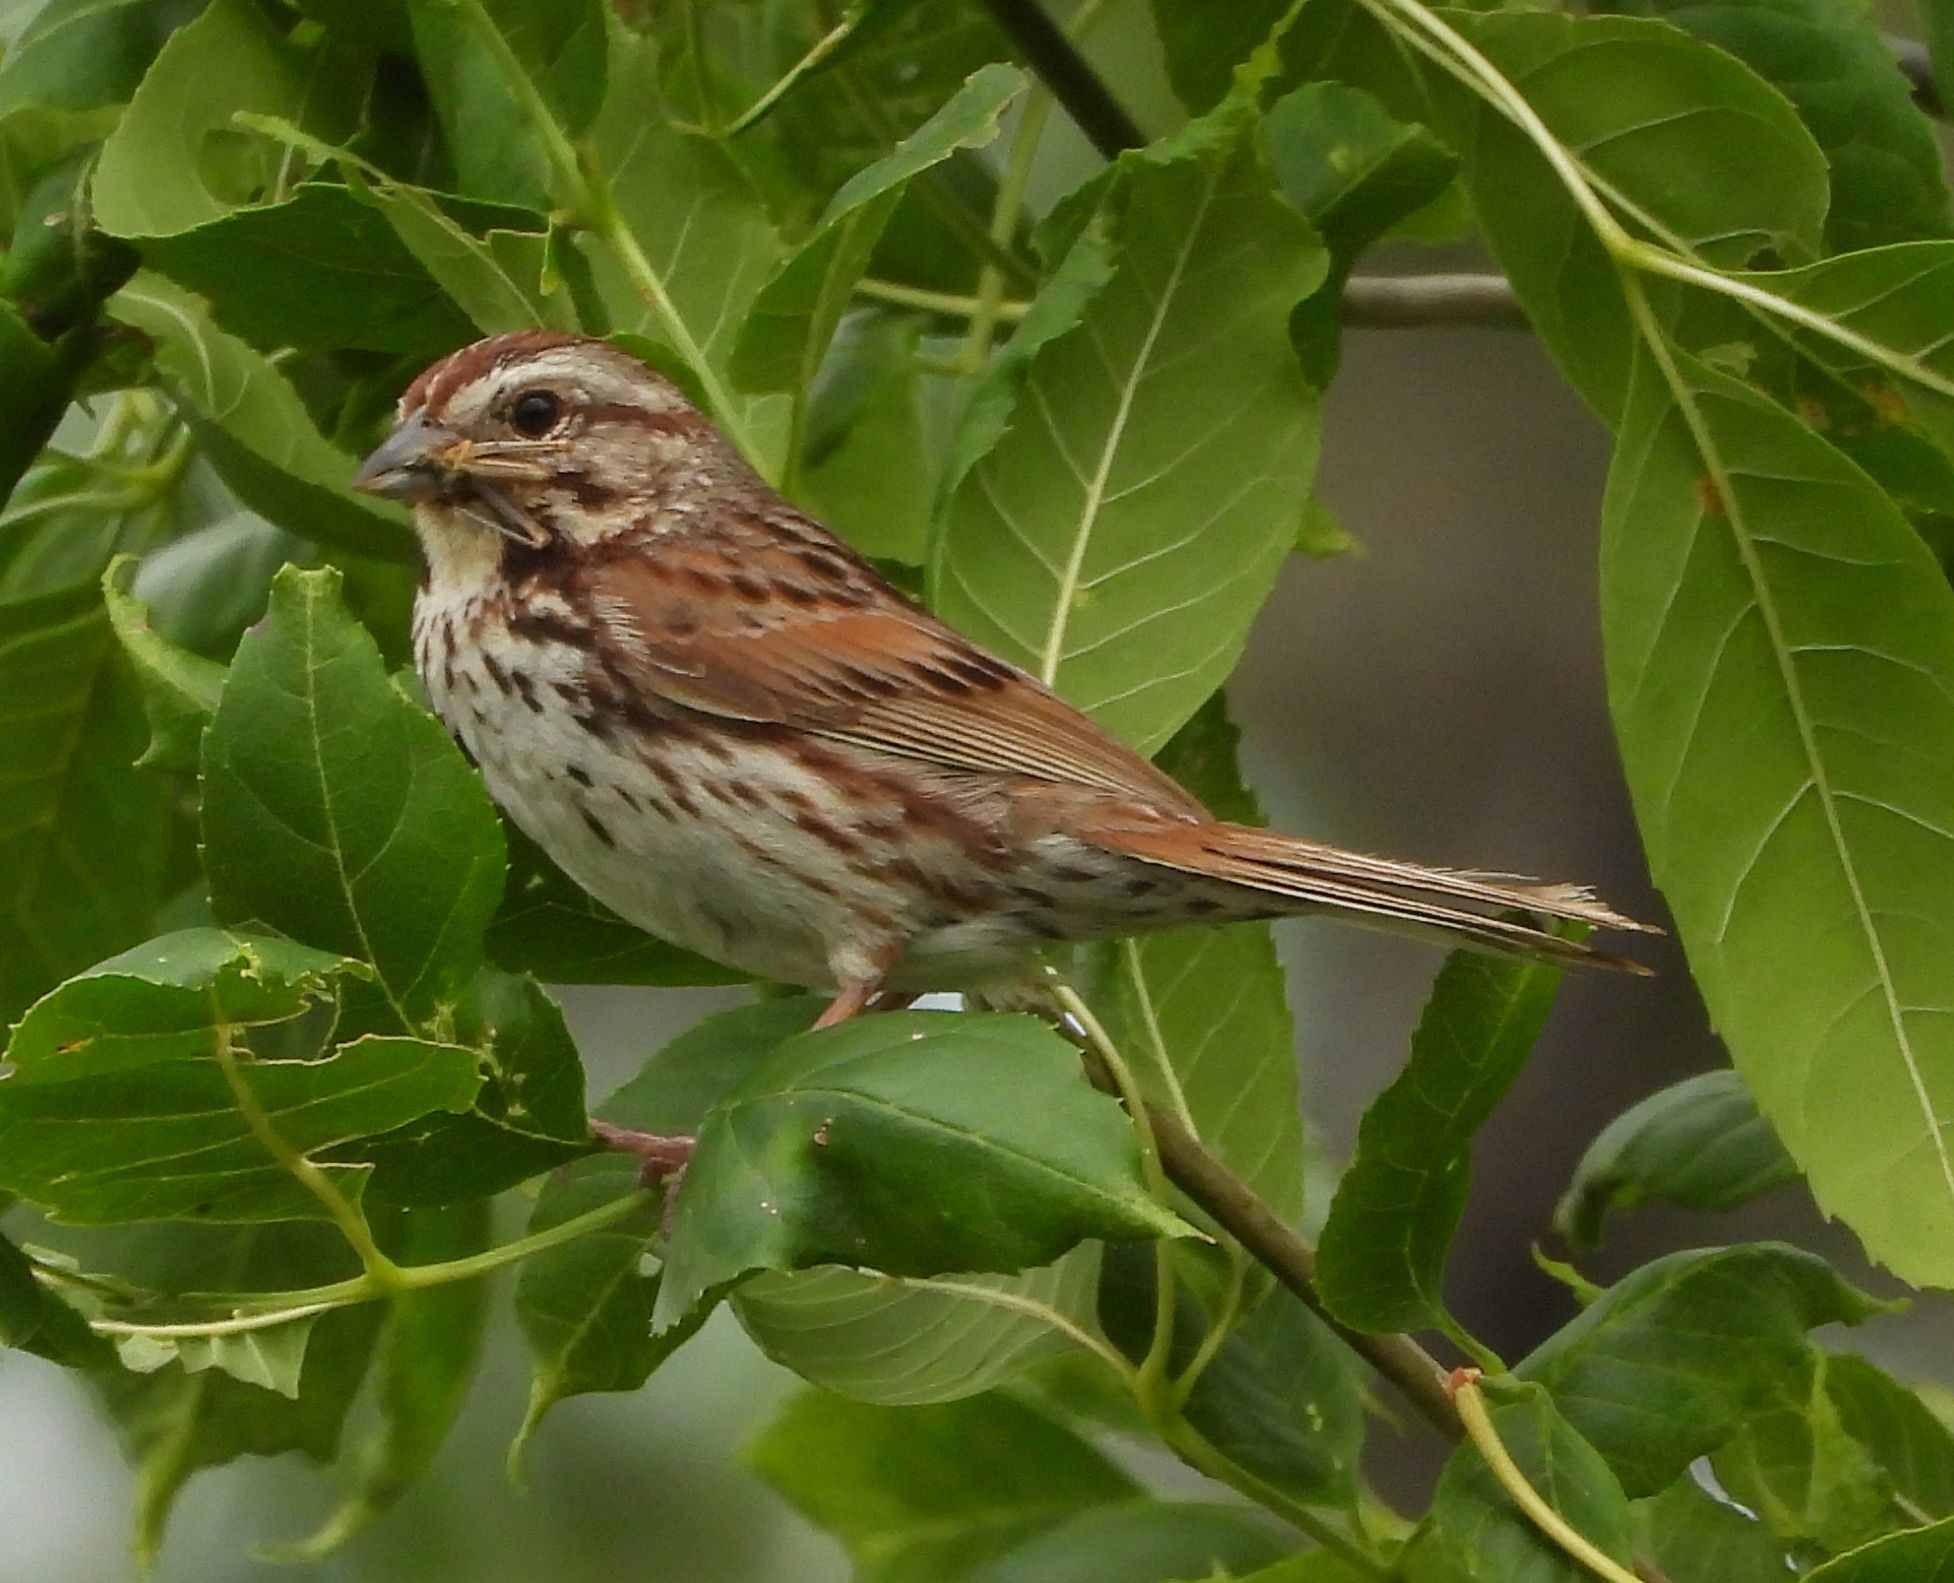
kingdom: Animalia
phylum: Chordata
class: Aves
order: Passeriformes
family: Passerellidae
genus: Melospiza
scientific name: Melospiza melodia
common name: Song sparrow
